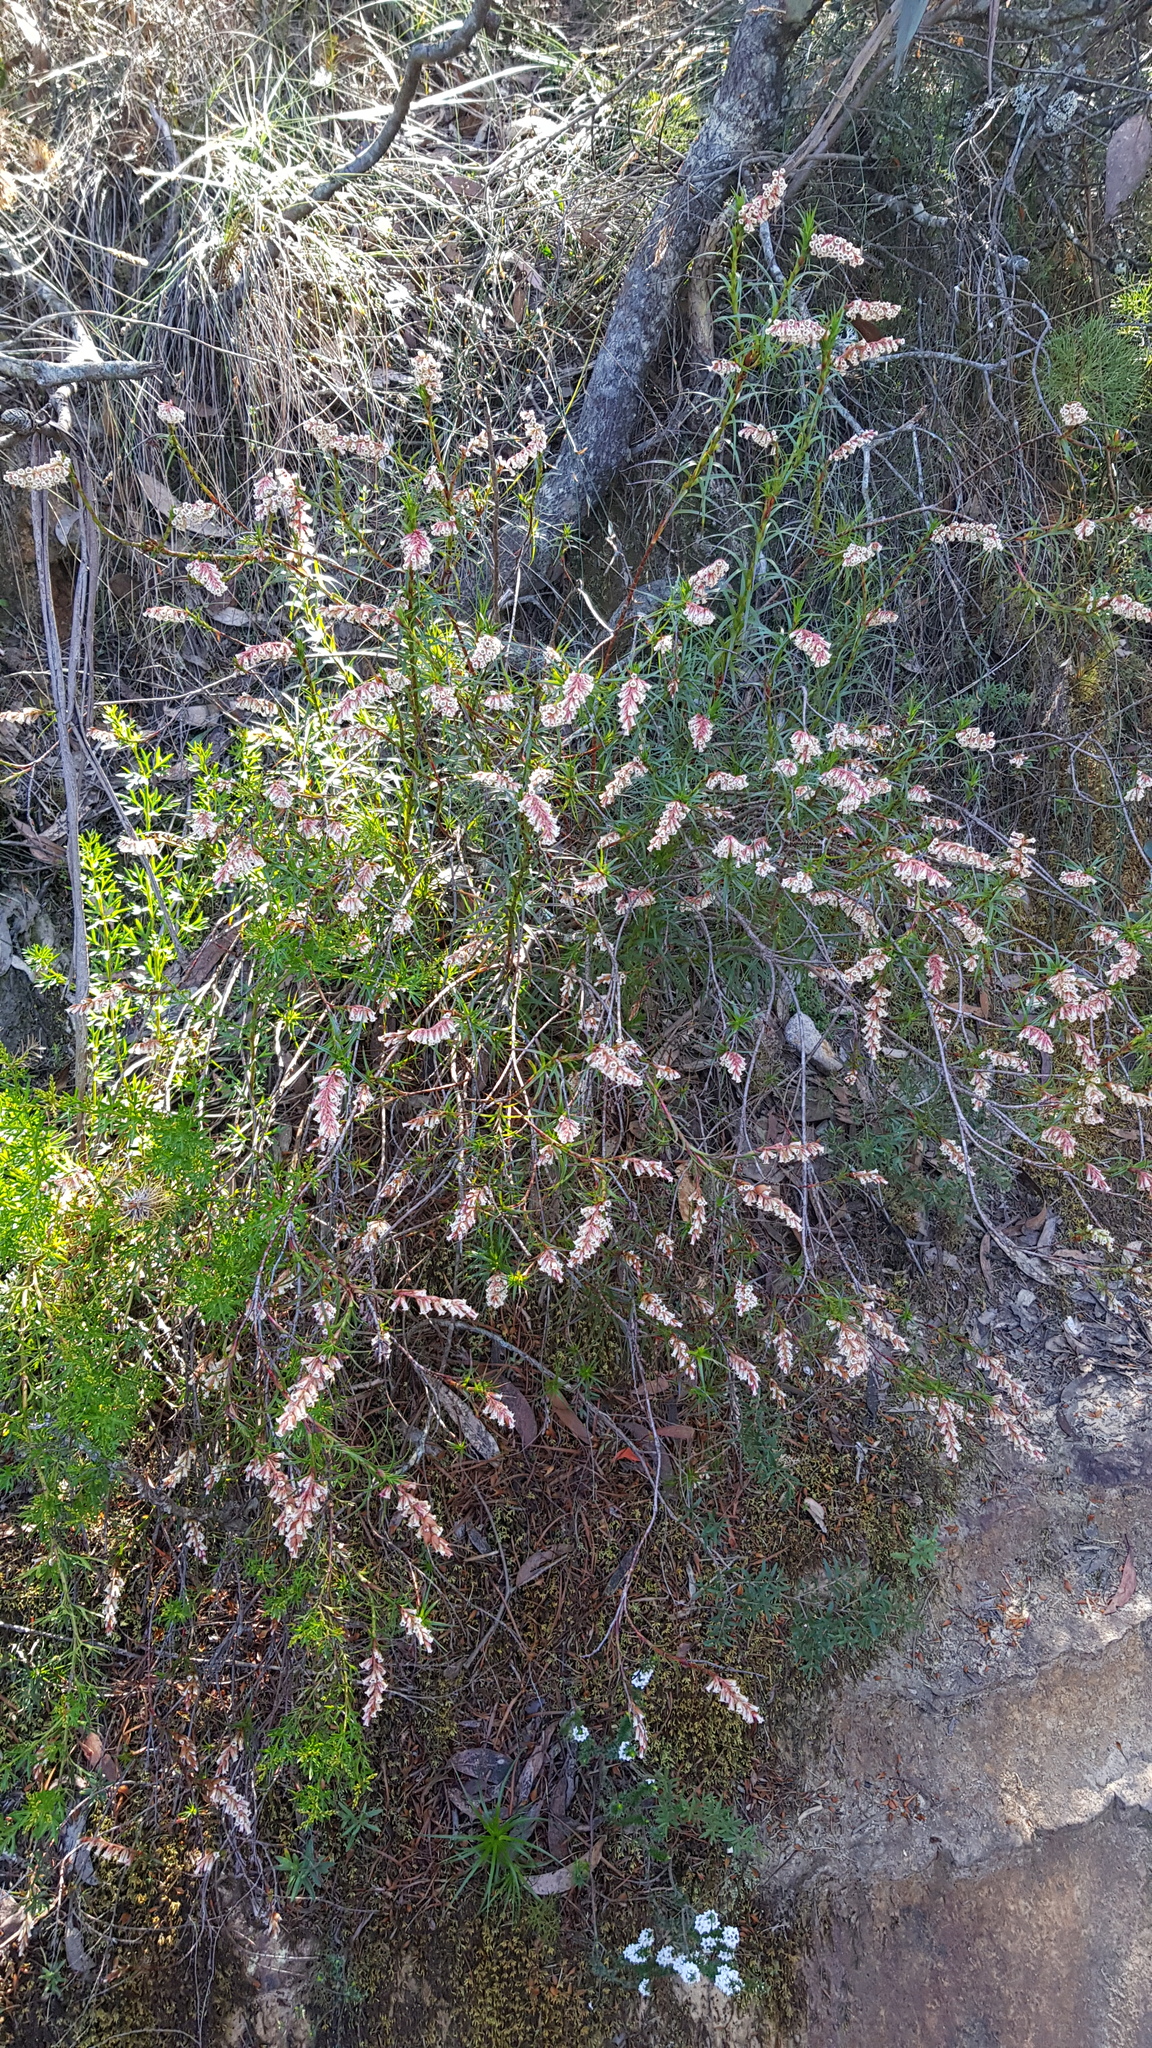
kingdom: Plantae
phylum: Tracheophyta
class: Magnoliopsida
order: Ericales
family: Ericaceae
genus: Dracophyllum
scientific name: Dracophyllum secundum
